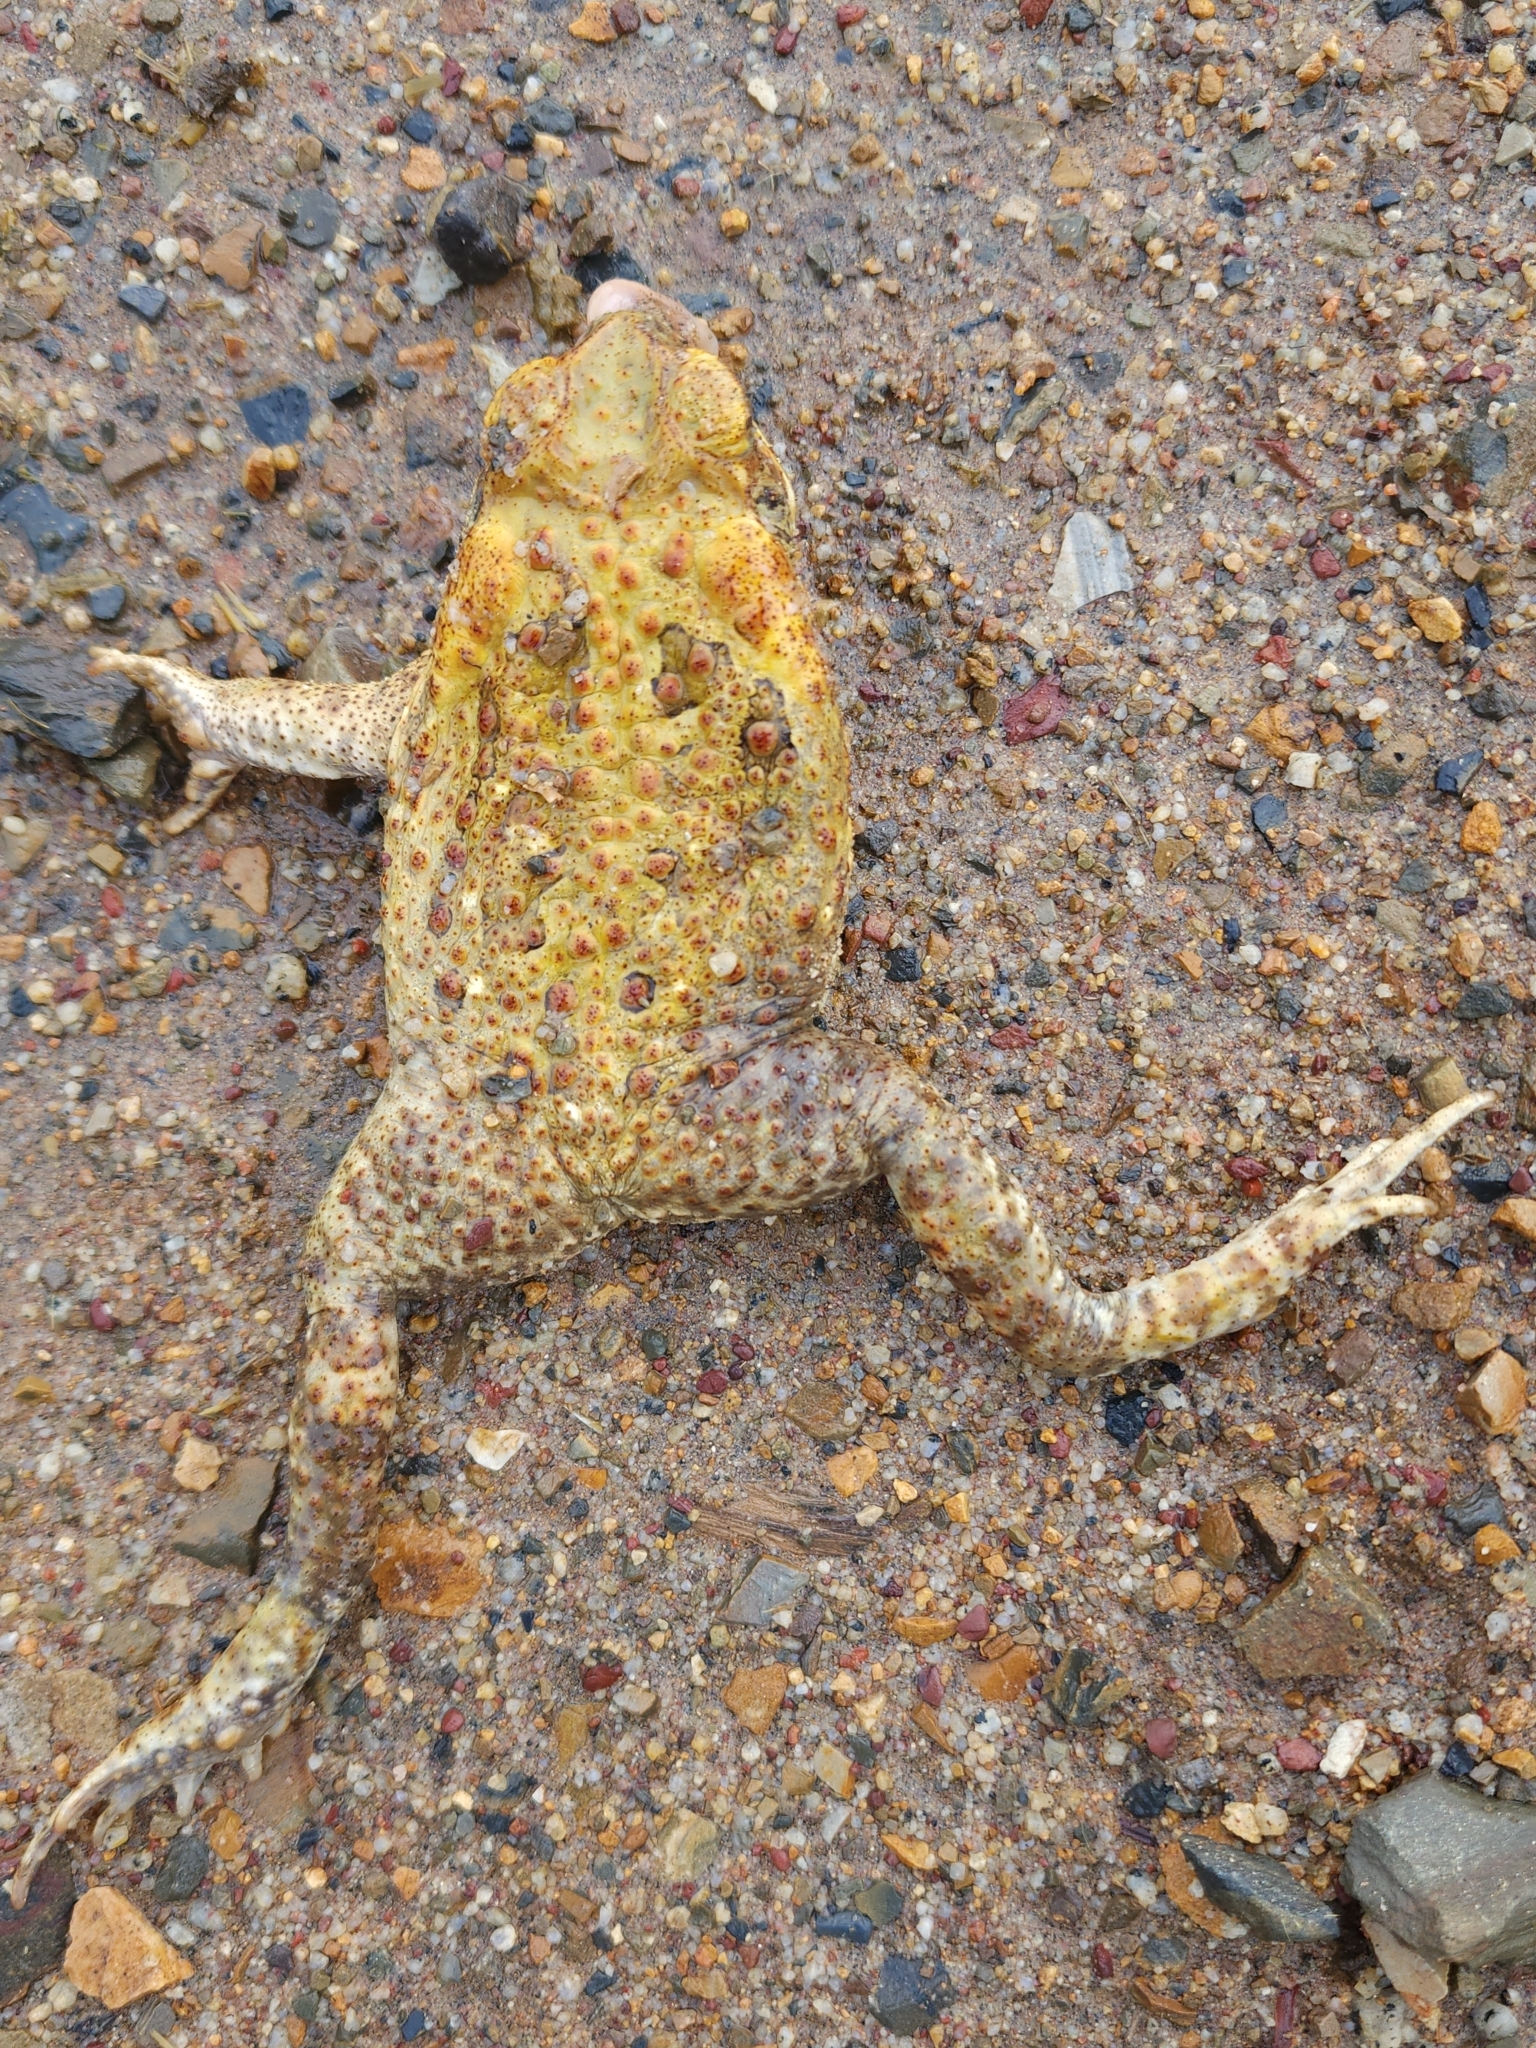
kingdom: Animalia
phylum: Chordata
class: Amphibia
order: Anura
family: Bufonidae
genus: Rhinella
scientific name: Rhinella marina
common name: Cane toad
